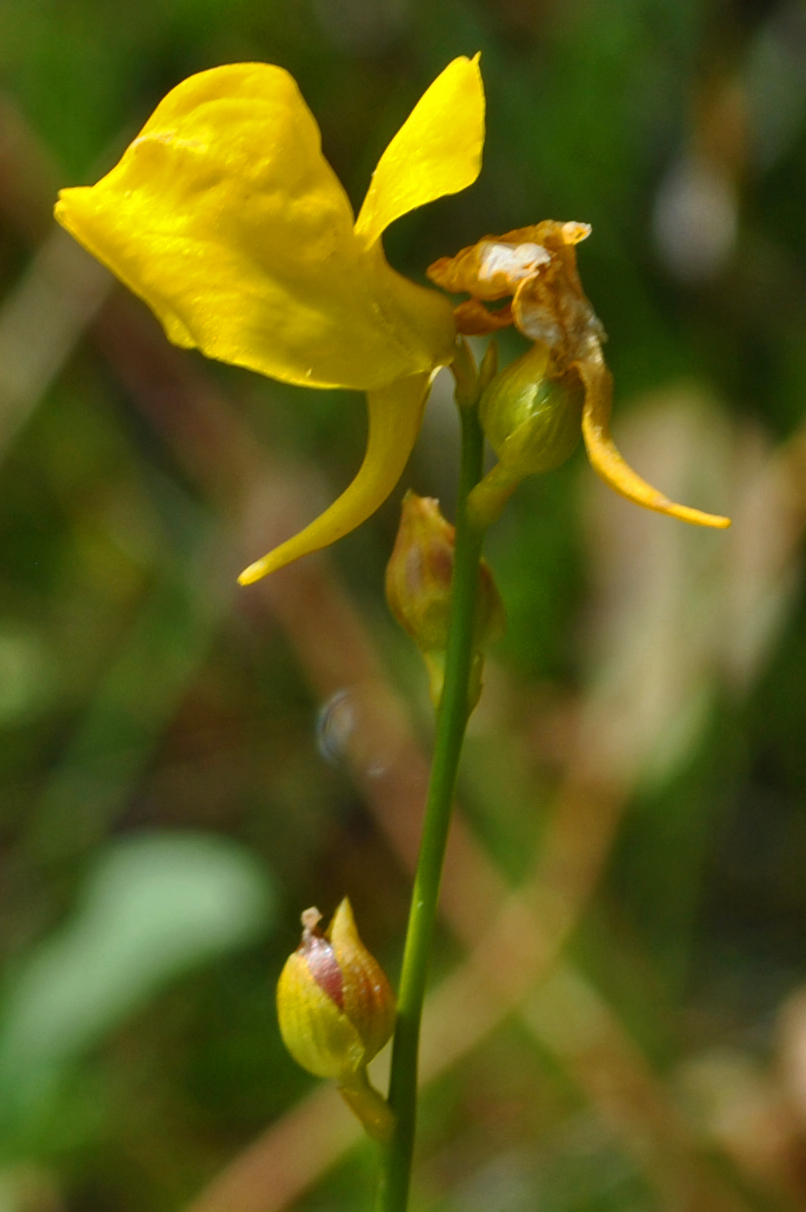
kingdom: Plantae
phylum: Tracheophyta
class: Magnoliopsida
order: Lamiales
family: Lentibulariaceae
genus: Utricularia
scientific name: Utricularia cornuta
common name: Horned bladderwort
